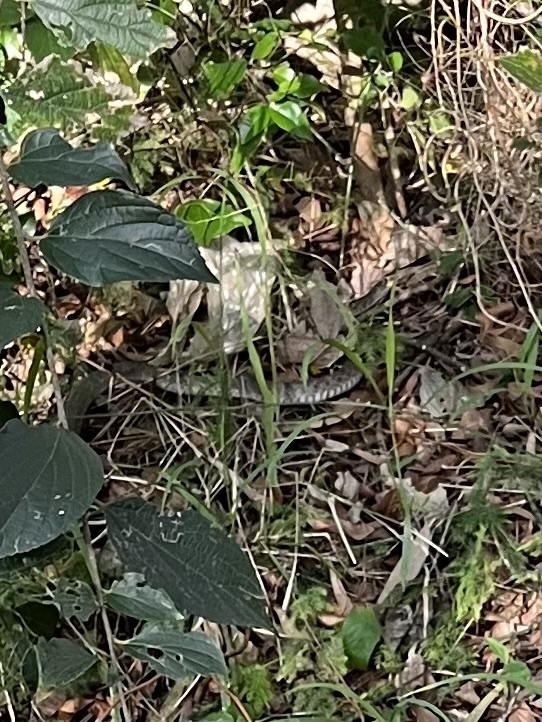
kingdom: Animalia
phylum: Chordata
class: Squamata
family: Colubridae
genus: Tropidonophis
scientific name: Tropidonophis mairii
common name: Common keelback
